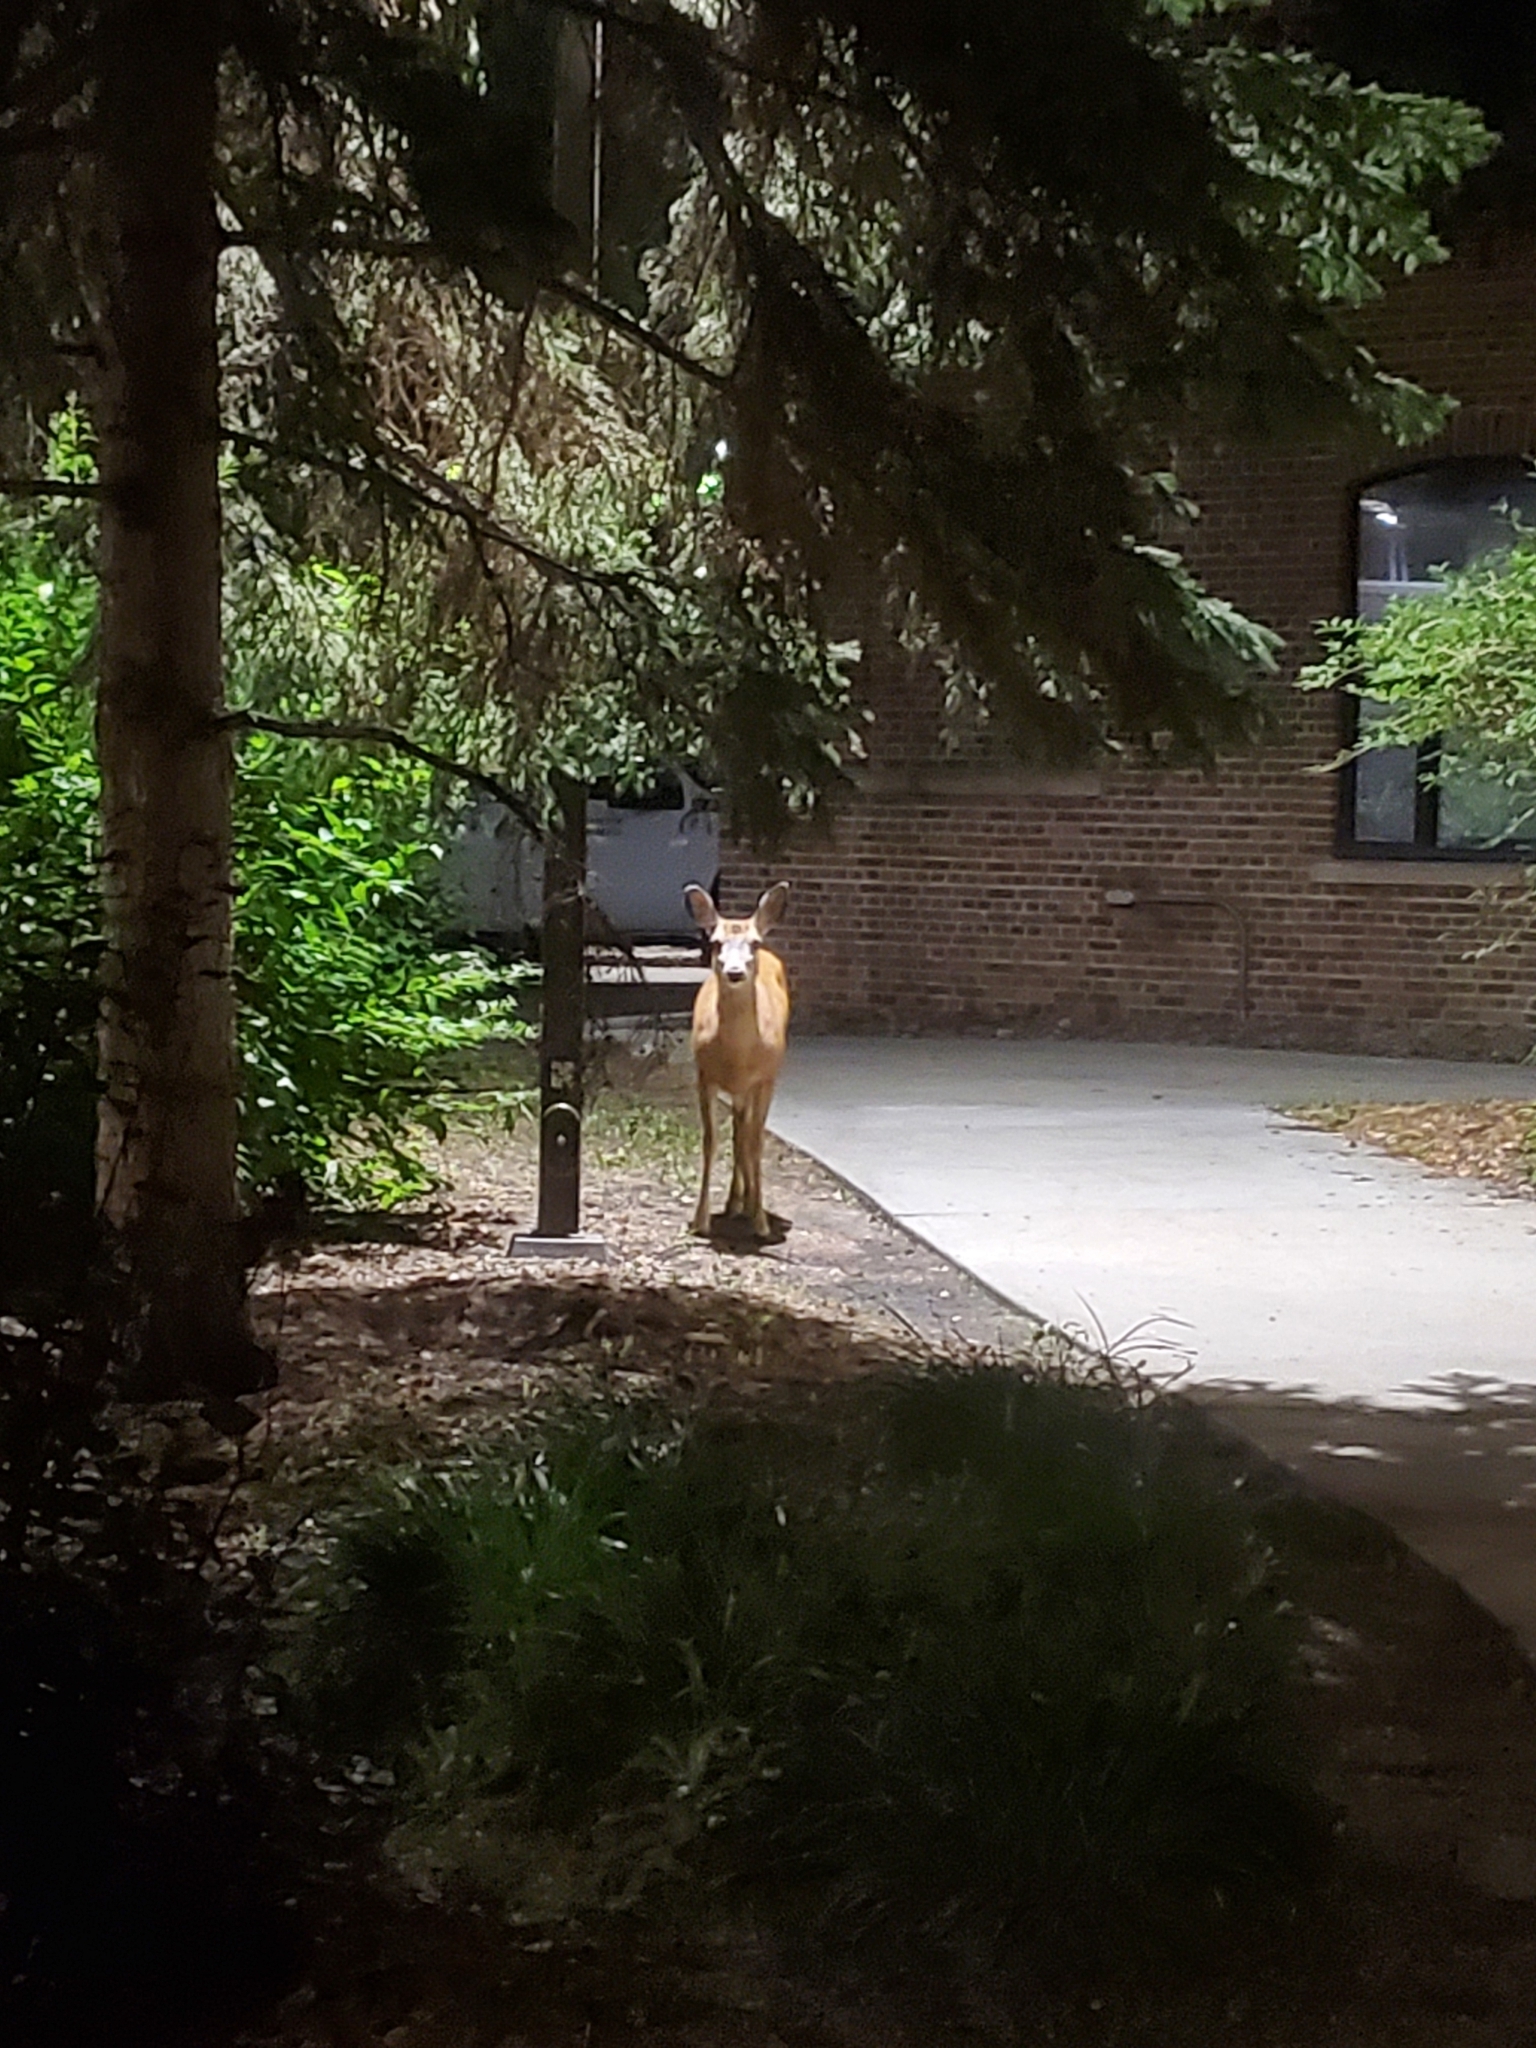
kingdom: Animalia
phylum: Chordata
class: Mammalia
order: Artiodactyla
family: Cervidae
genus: Odocoileus
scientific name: Odocoileus hemionus
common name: Mule deer
